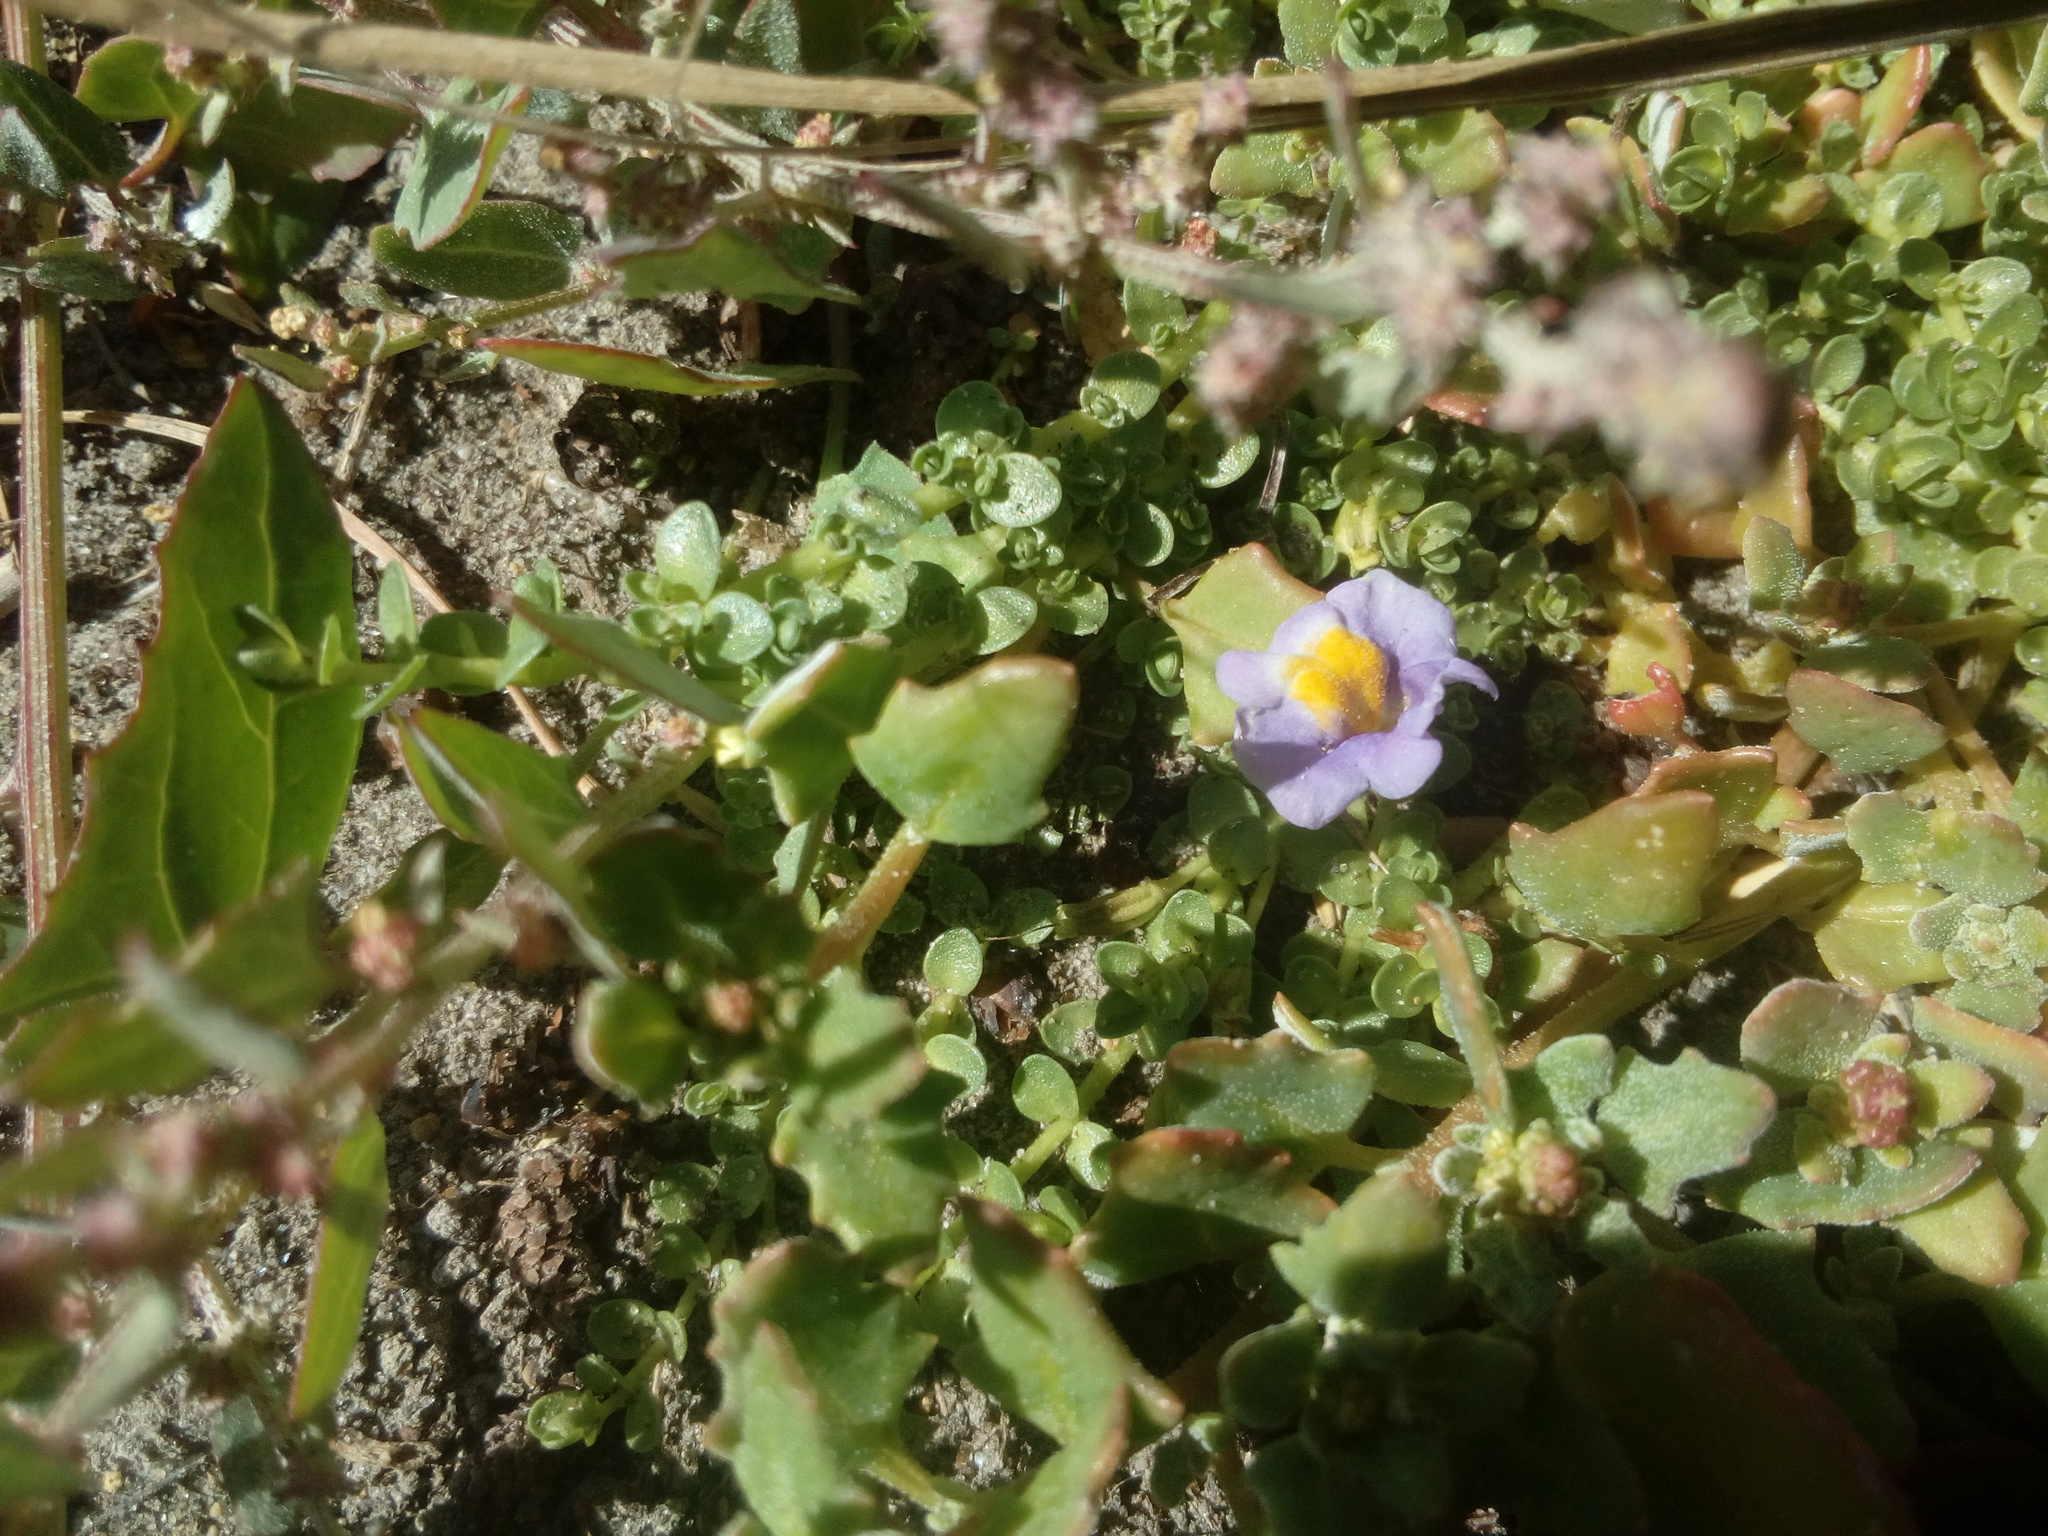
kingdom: Plantae
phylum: Tracheophyta
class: Magnoliopsida
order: Lamiales
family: Phrymaceae
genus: Thyridia
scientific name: Thyridia repens
